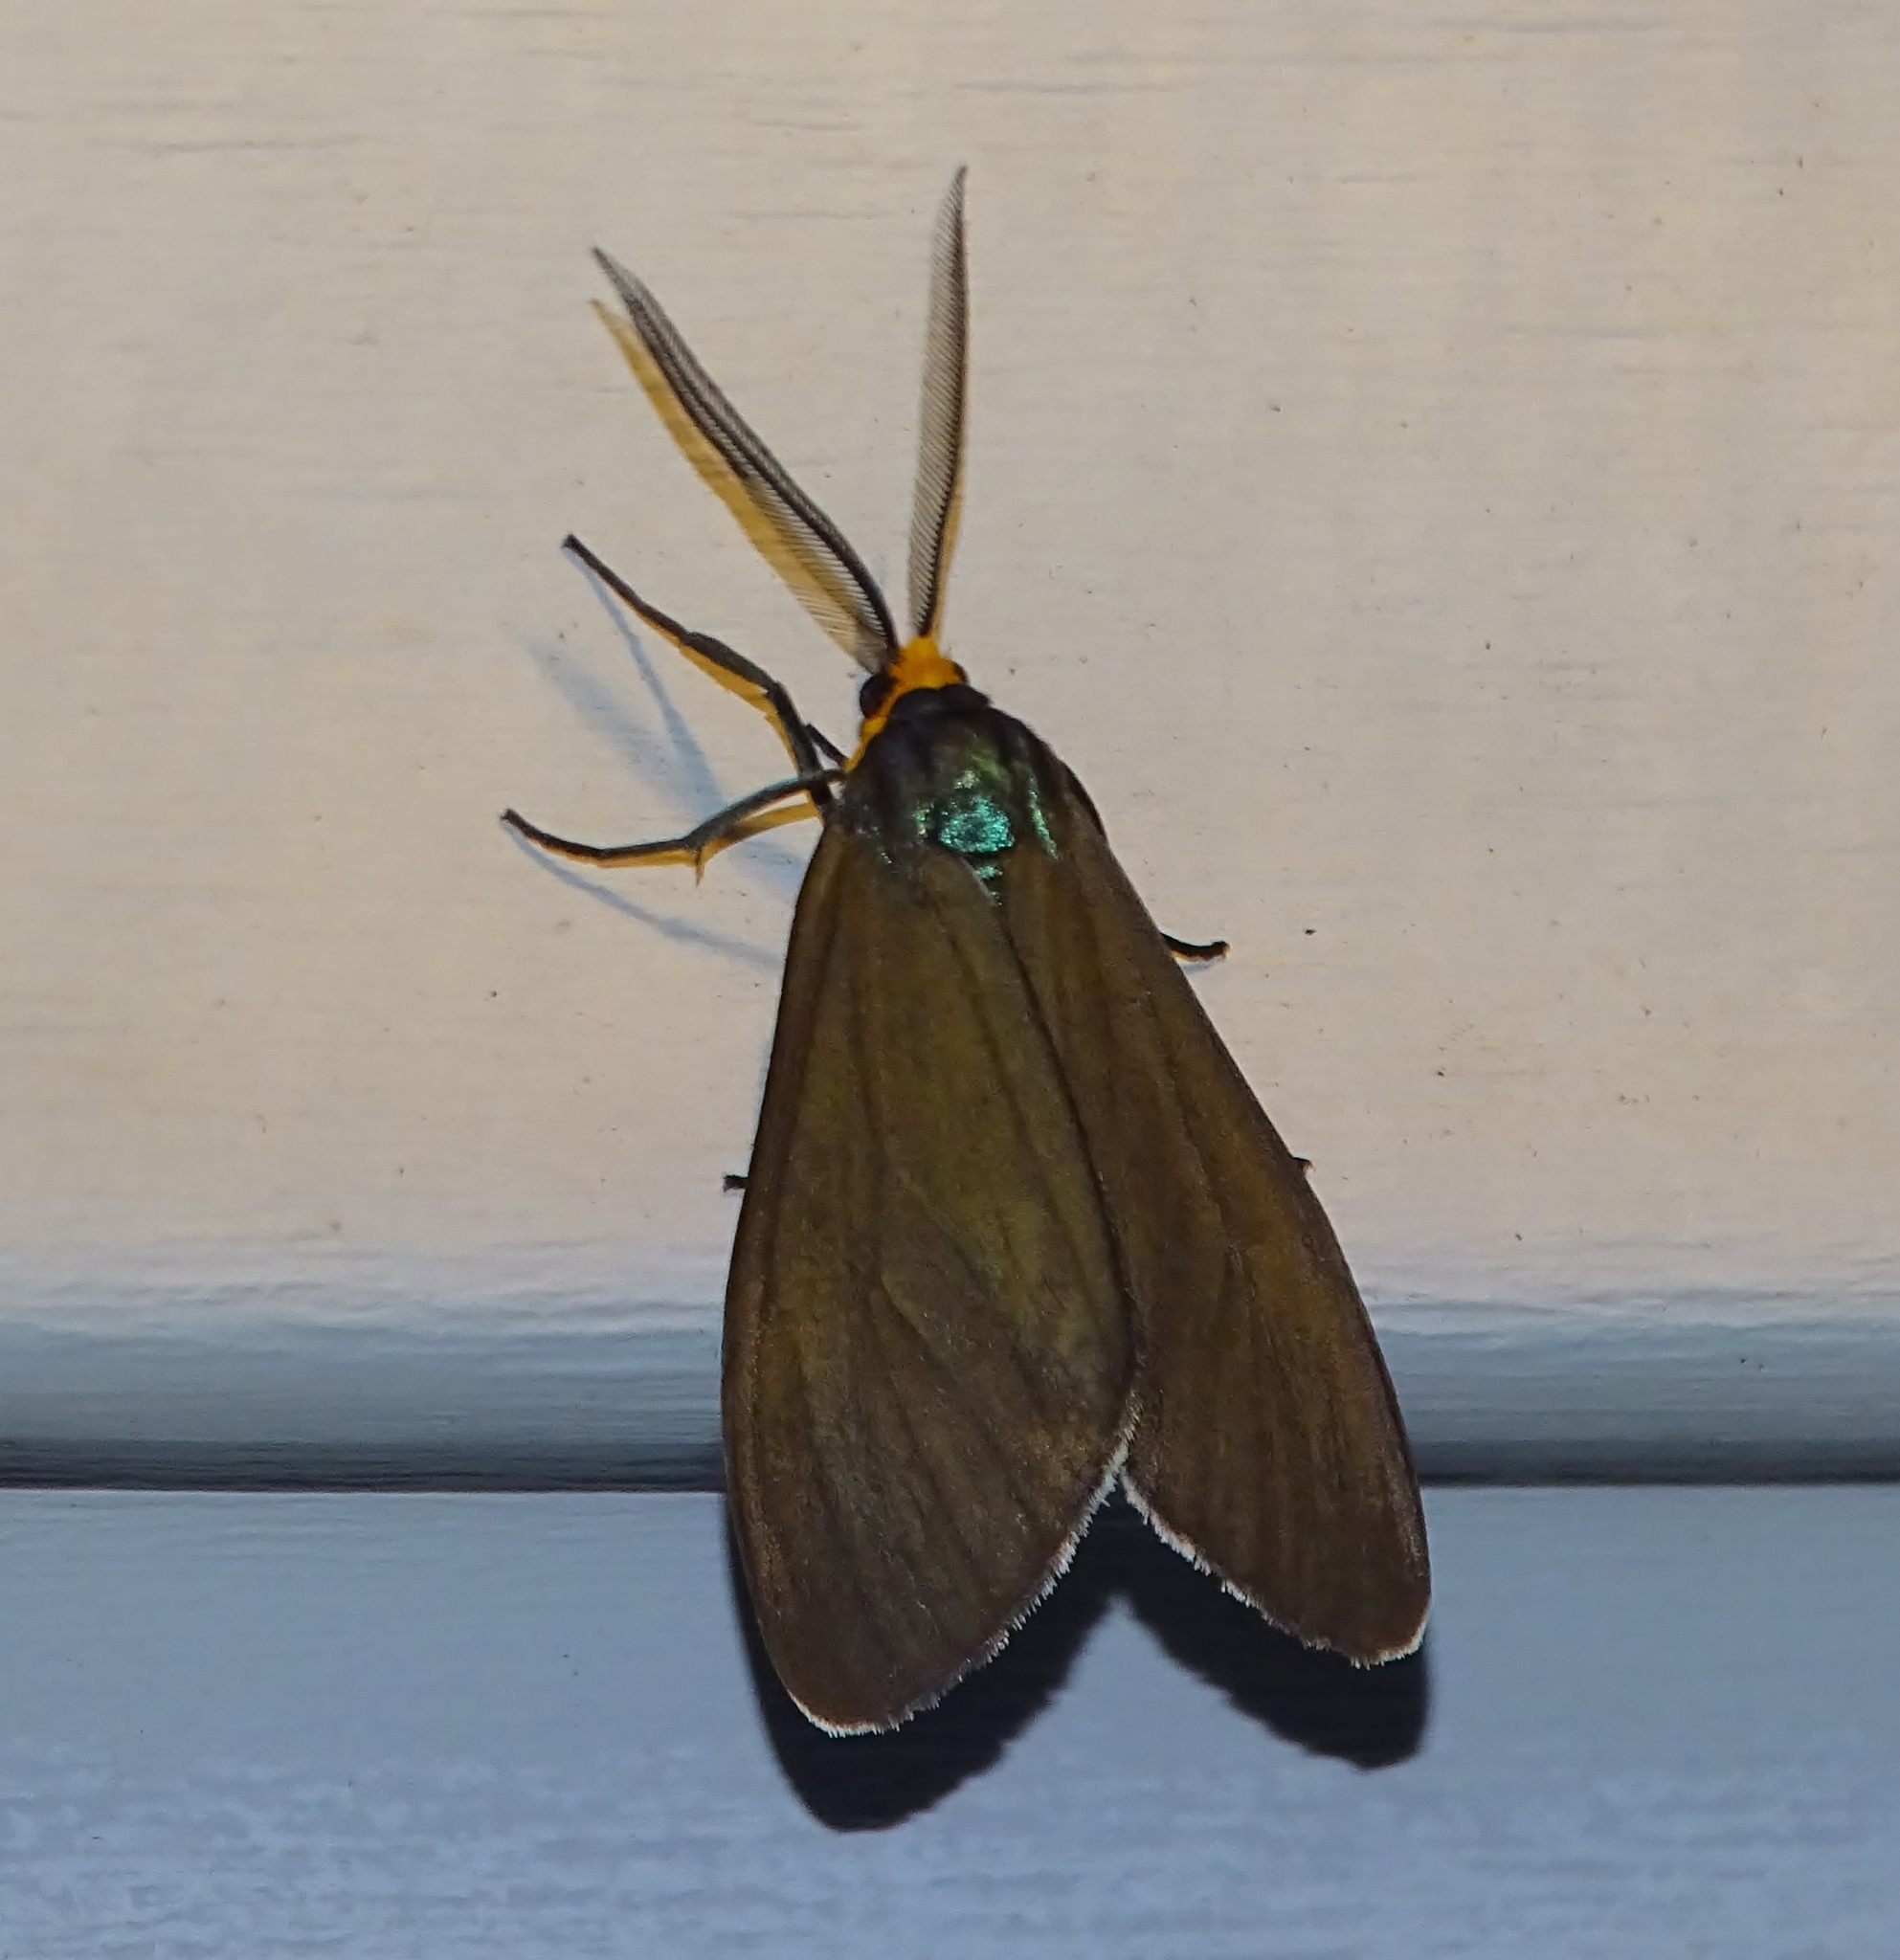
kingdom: Animalia
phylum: Arthropoda
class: Insecta
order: Lepidoptera
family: Erebidae
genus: Ctenucha
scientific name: Ctenucha virginica
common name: Virginia ctenucha moth
